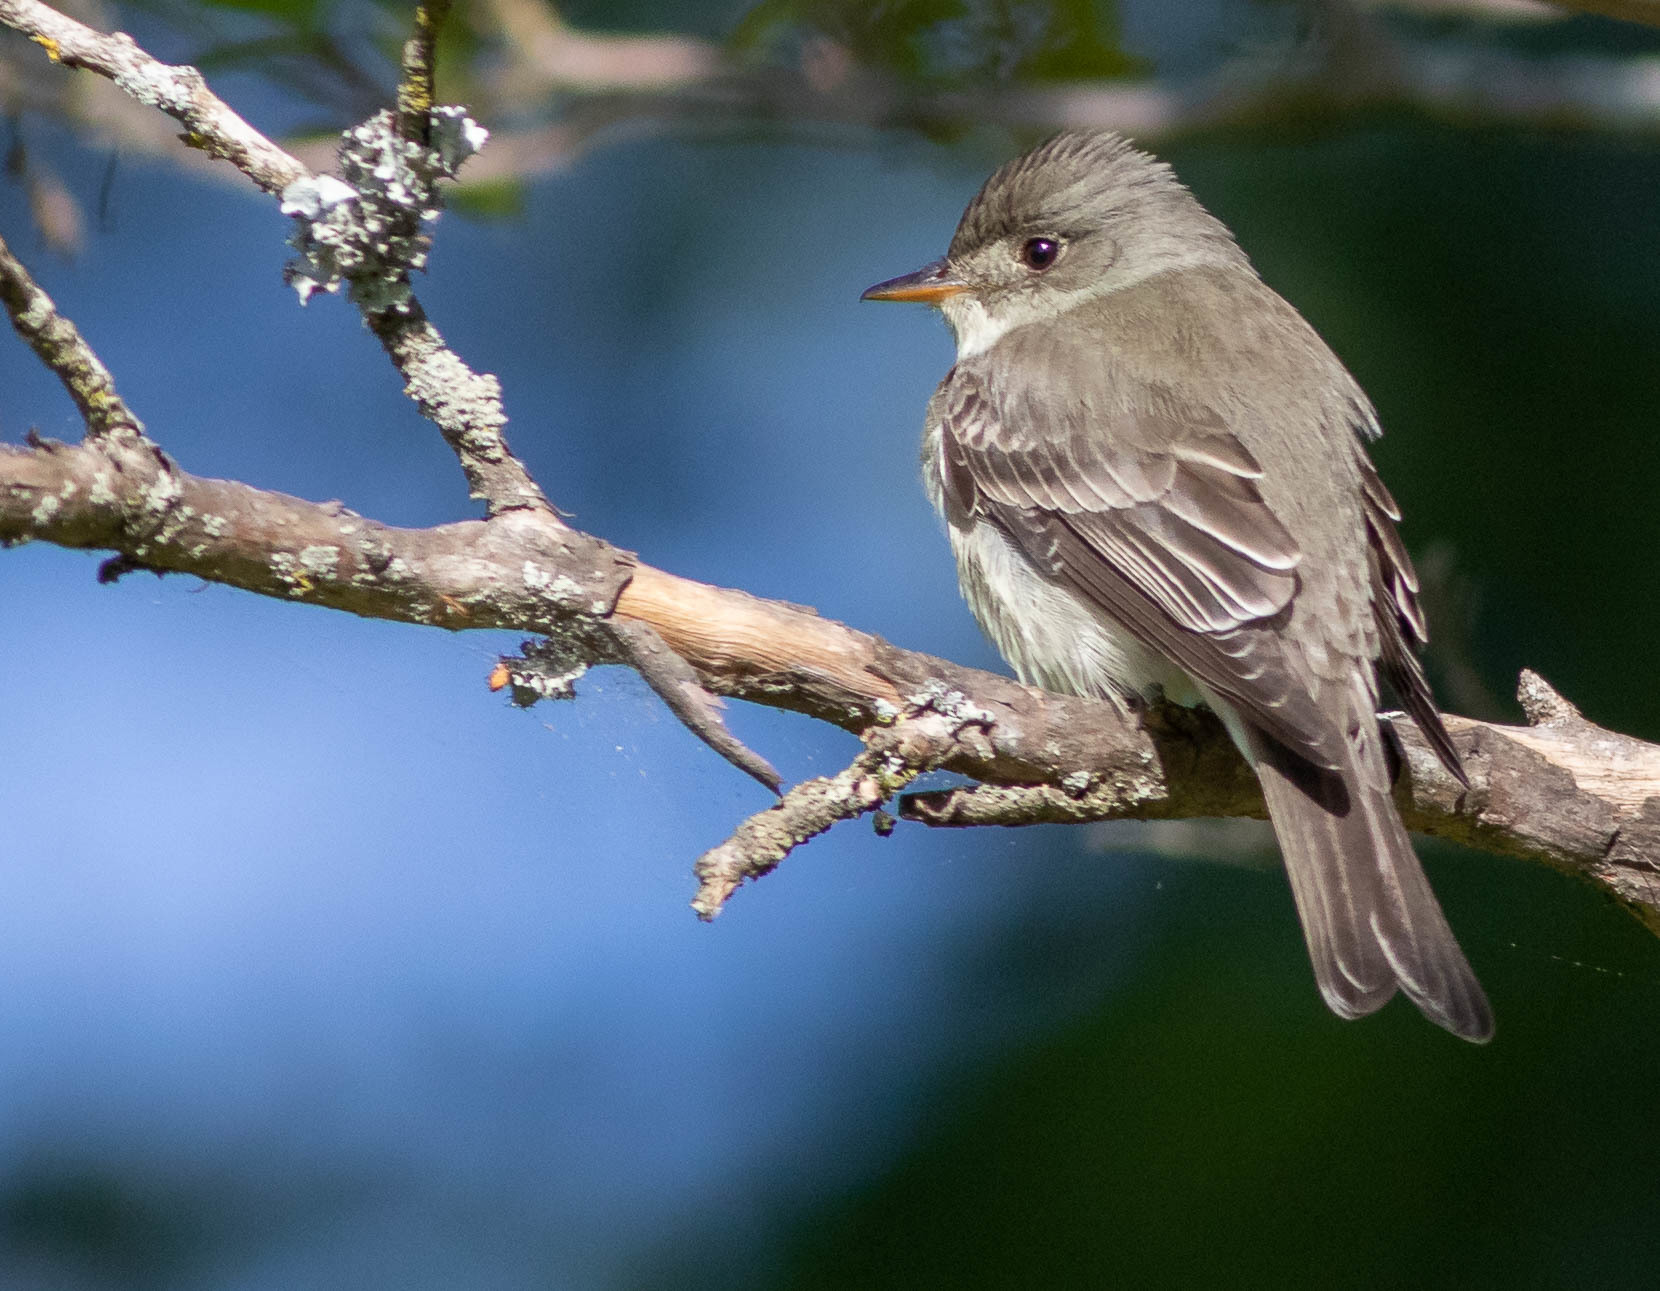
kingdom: Animalia
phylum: Chordata
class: Aves
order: Passeriformes
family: Tyrannidae
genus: Contopus
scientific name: Contopus virens
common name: Eastern wood-pewee
